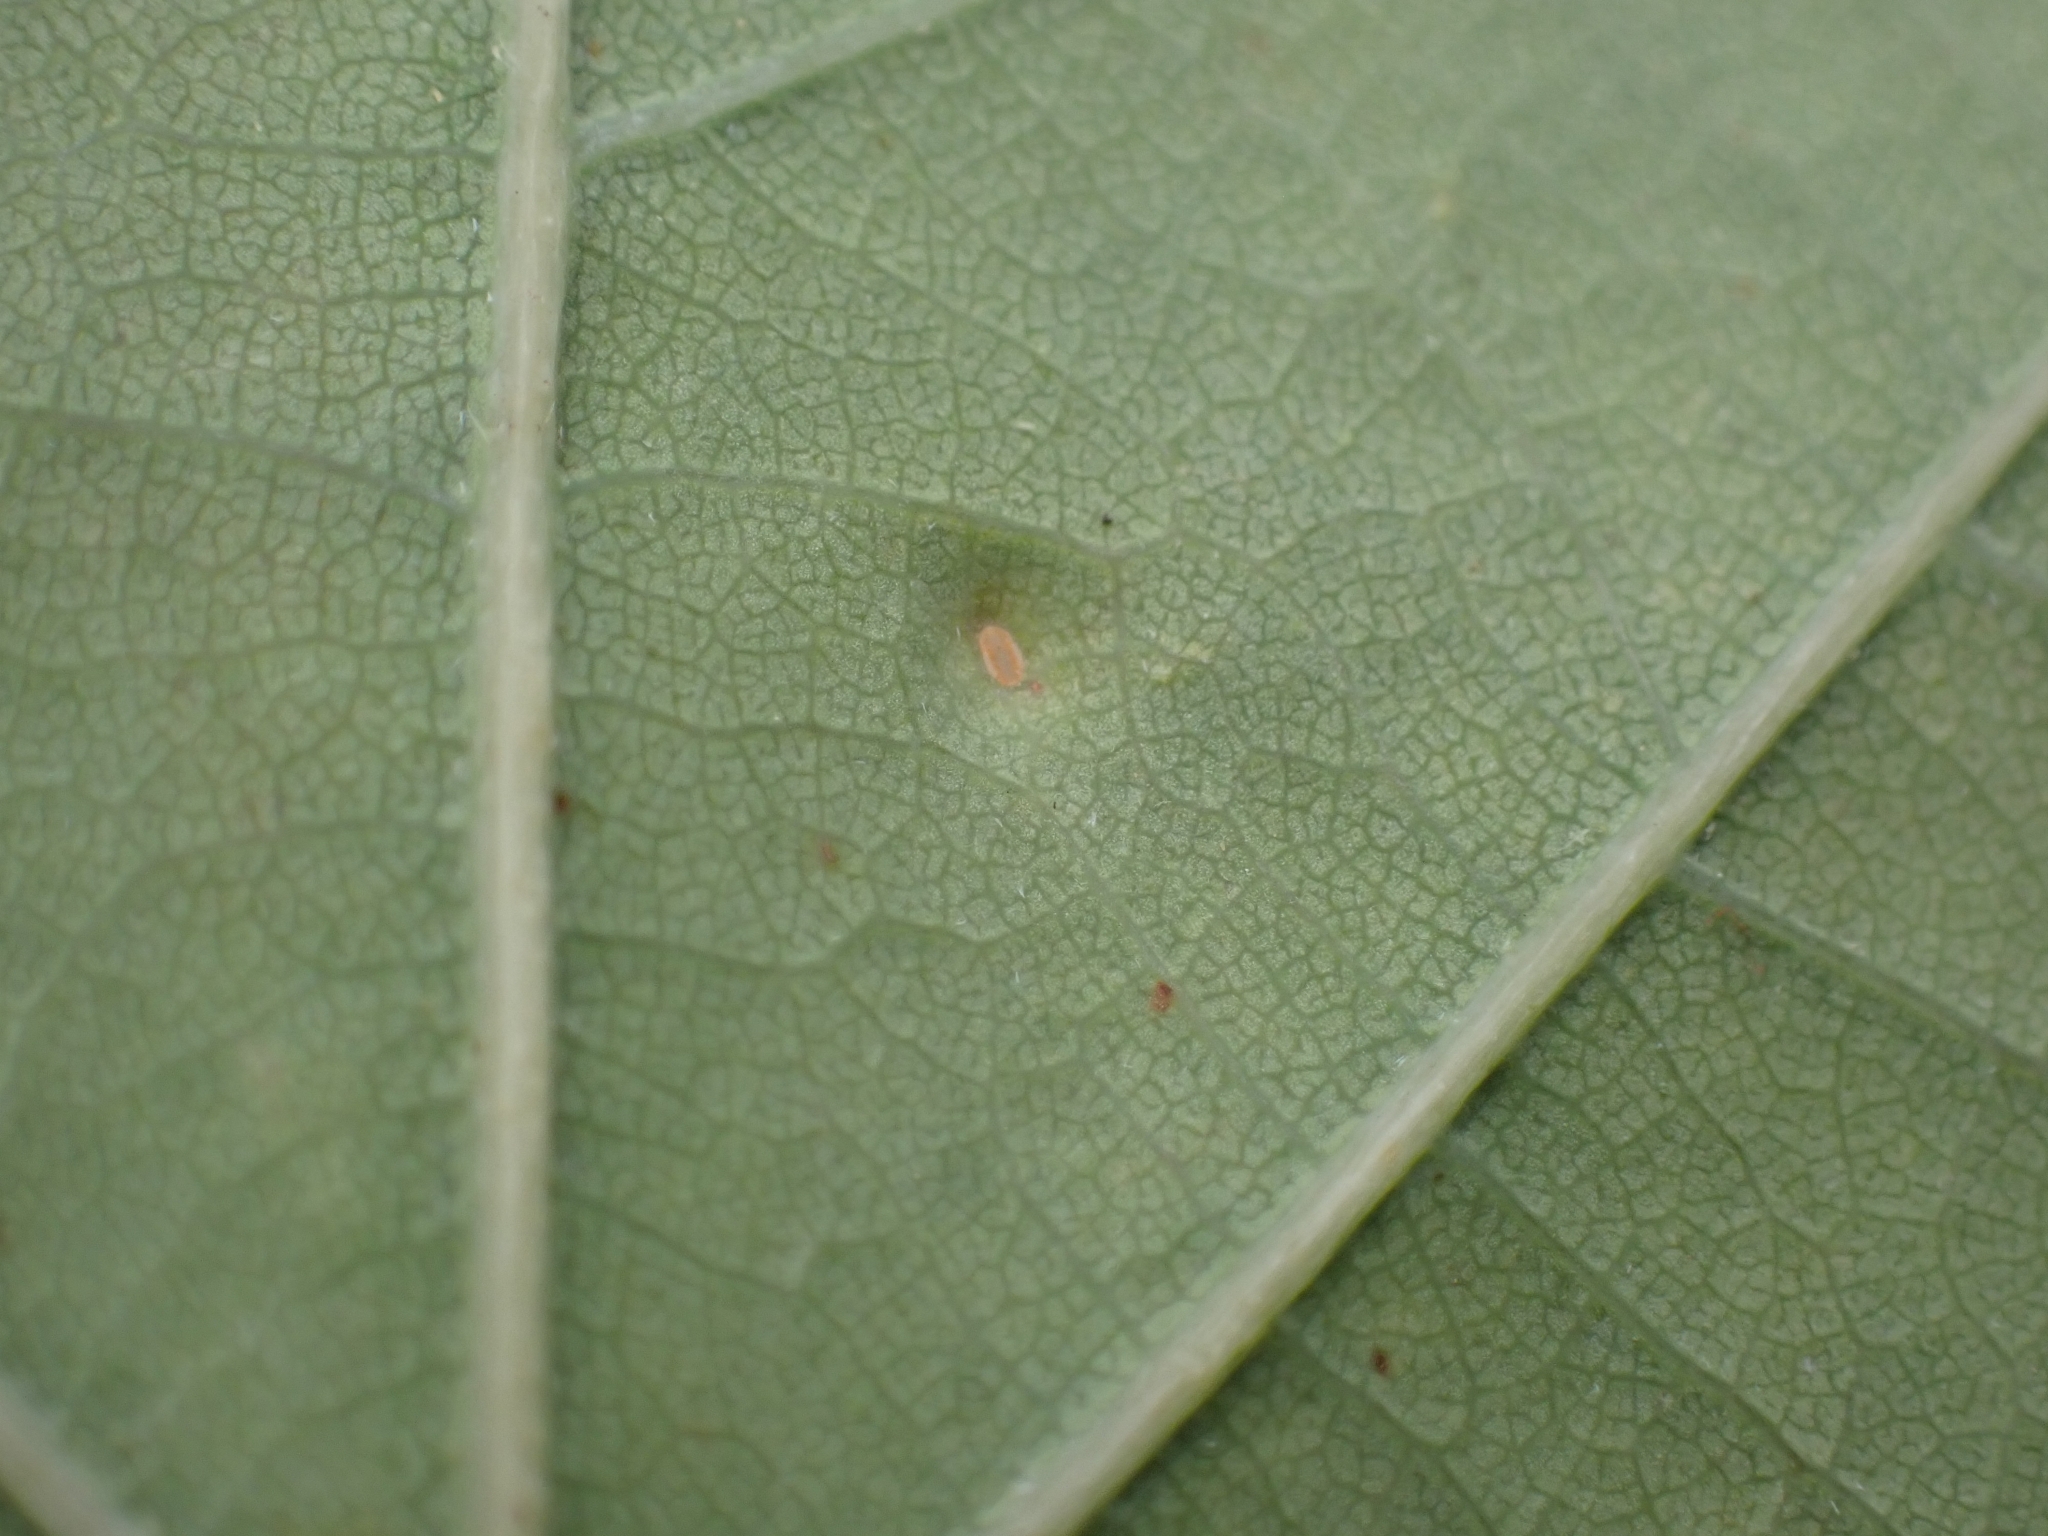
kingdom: Animalia
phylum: Arthropoda
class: Insecta
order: Hemiptera
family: Triozidae
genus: Trioza
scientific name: Trioza remota
